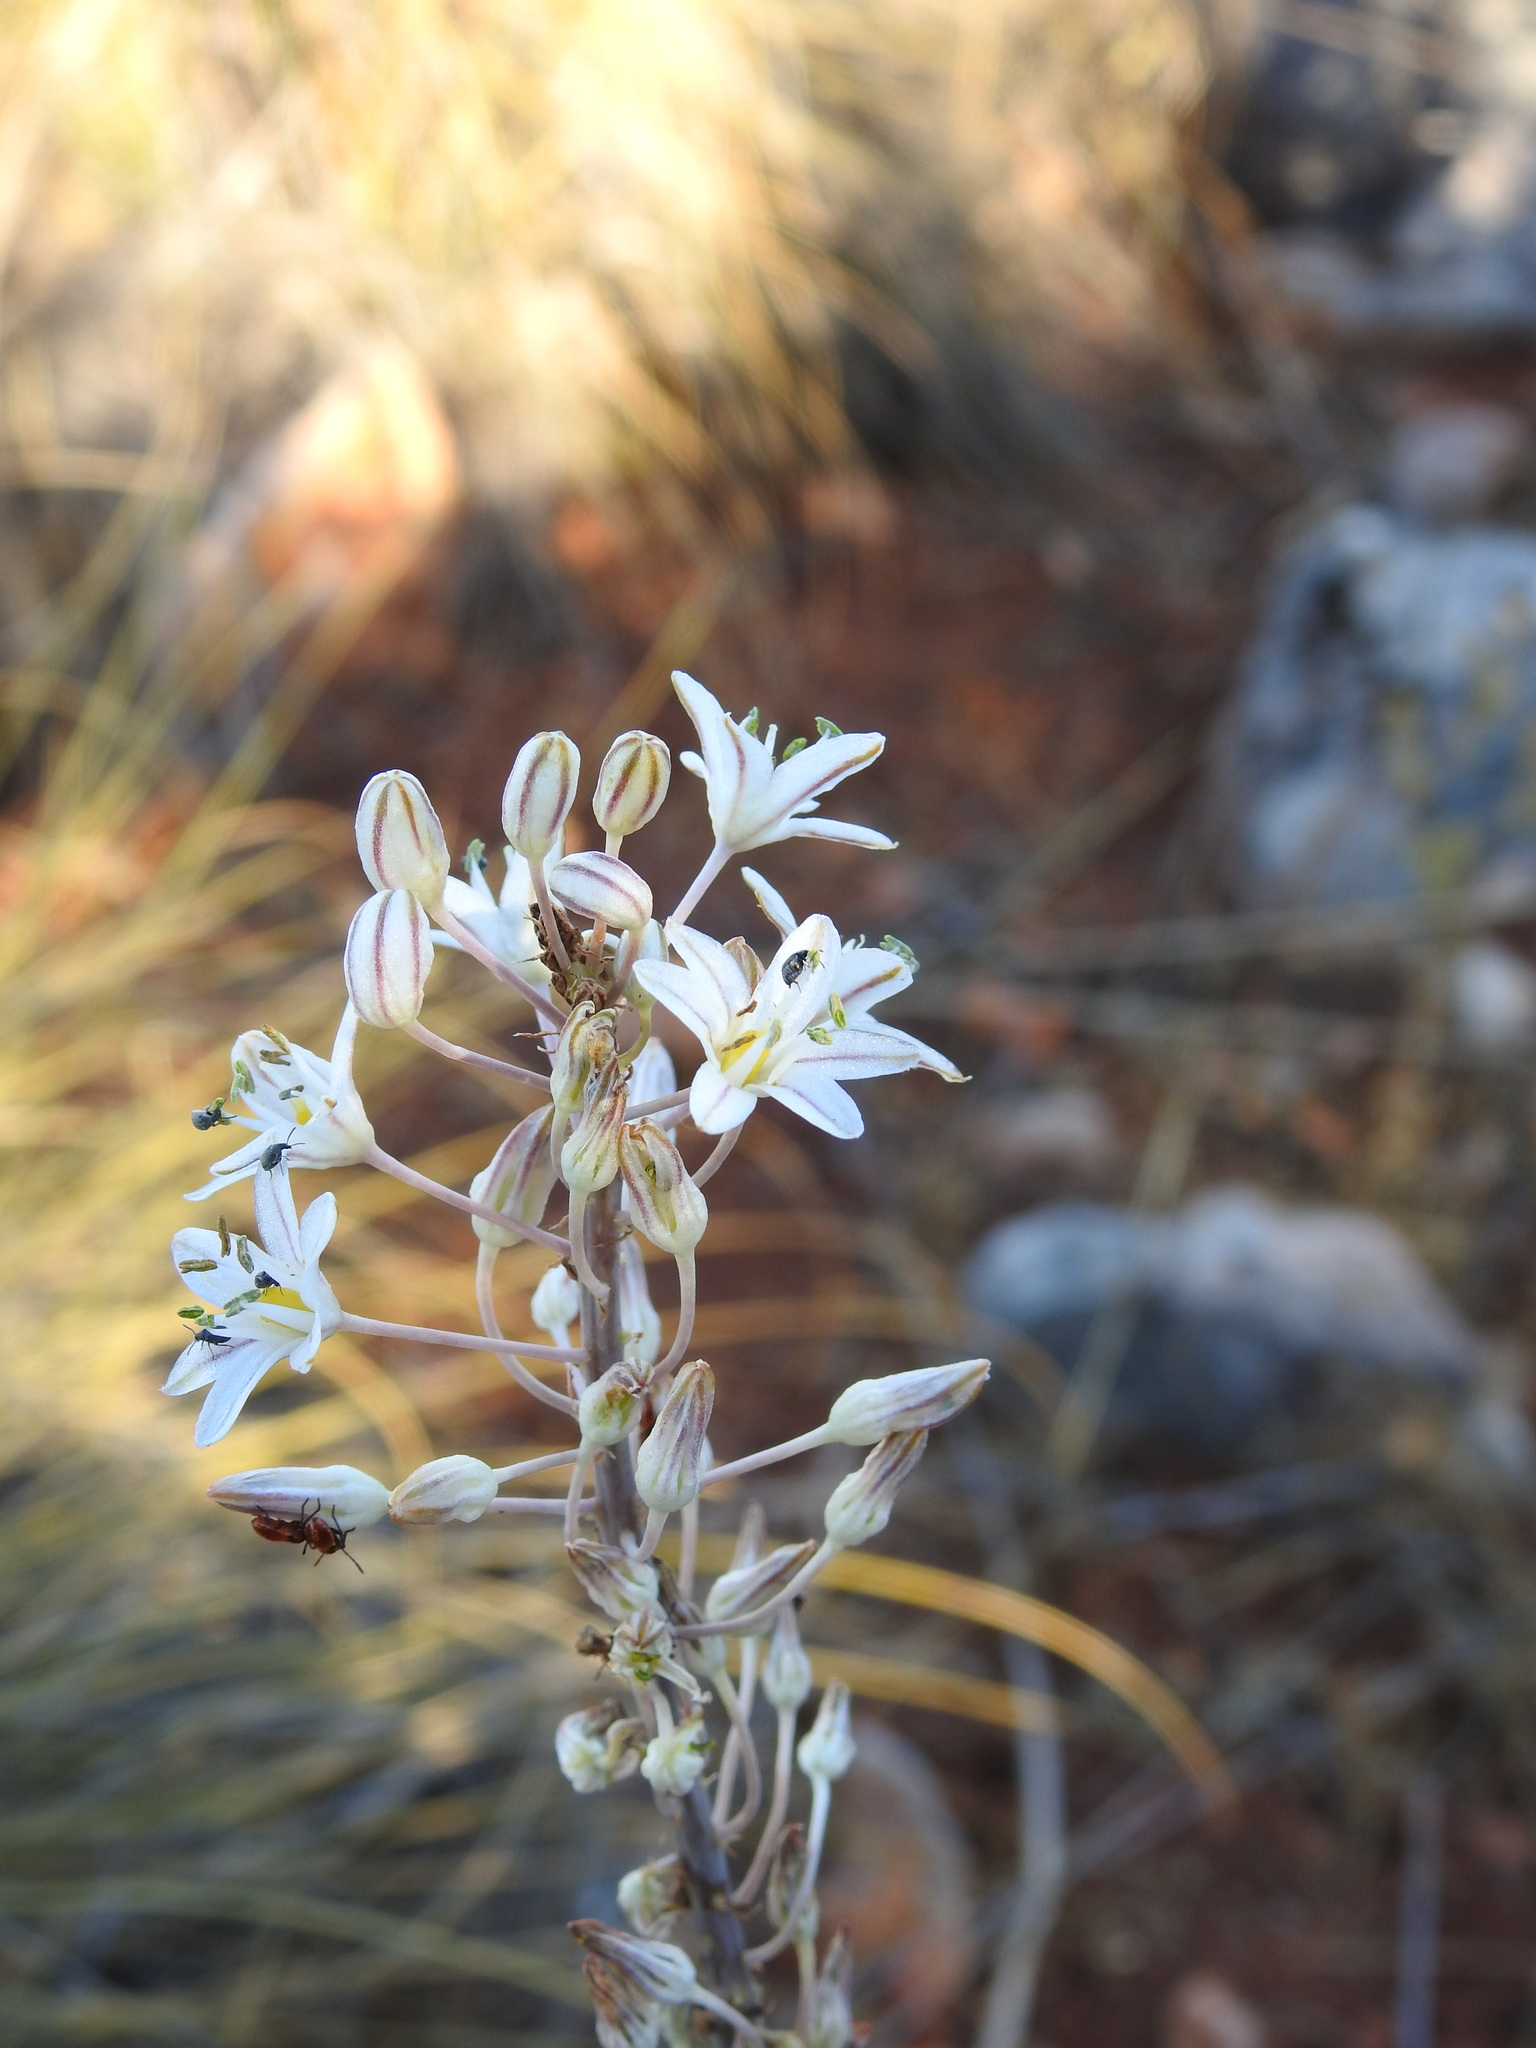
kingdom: Plantae
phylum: Tracheophyta
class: Liliopsida
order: Asparagales
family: Asparagaceae
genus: Drimia
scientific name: Drimia maritima
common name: Maritime squill
